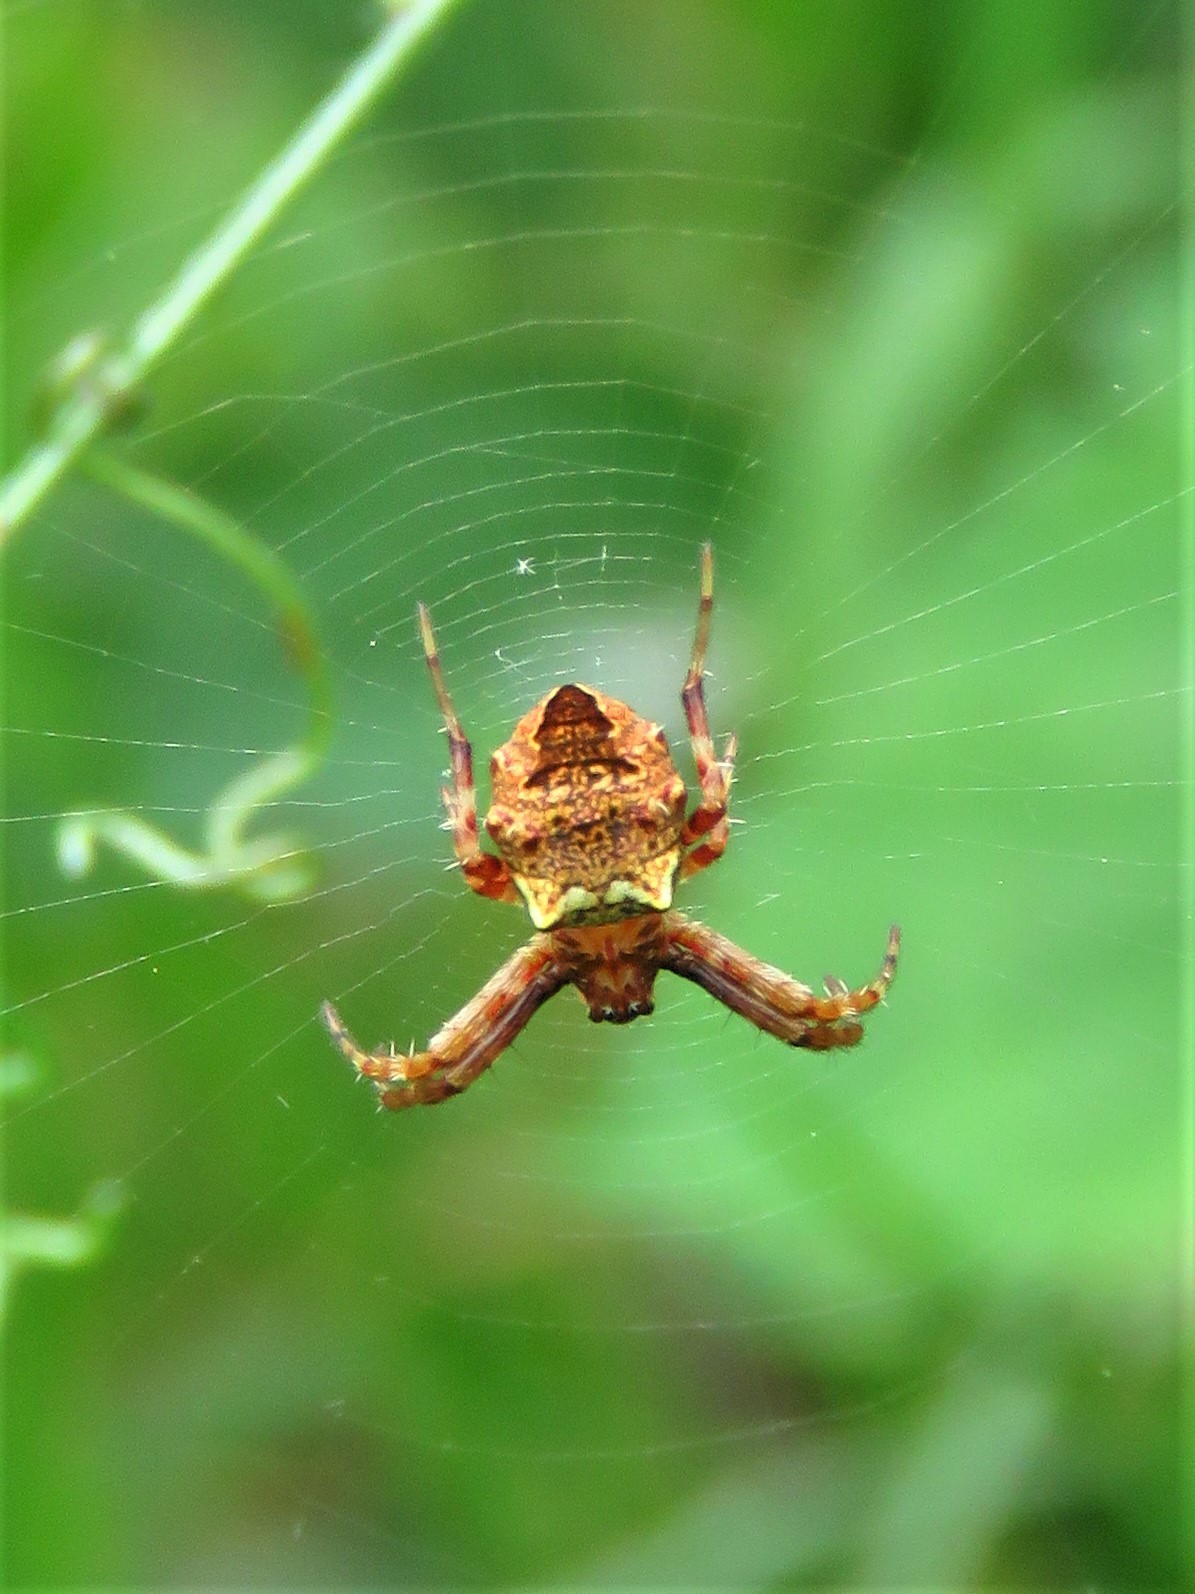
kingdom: Animalia
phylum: Arthropoda
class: Arachnida
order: Araneae
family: Araneidae
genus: Gea
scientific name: Gea heptagon
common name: Orb weavers
